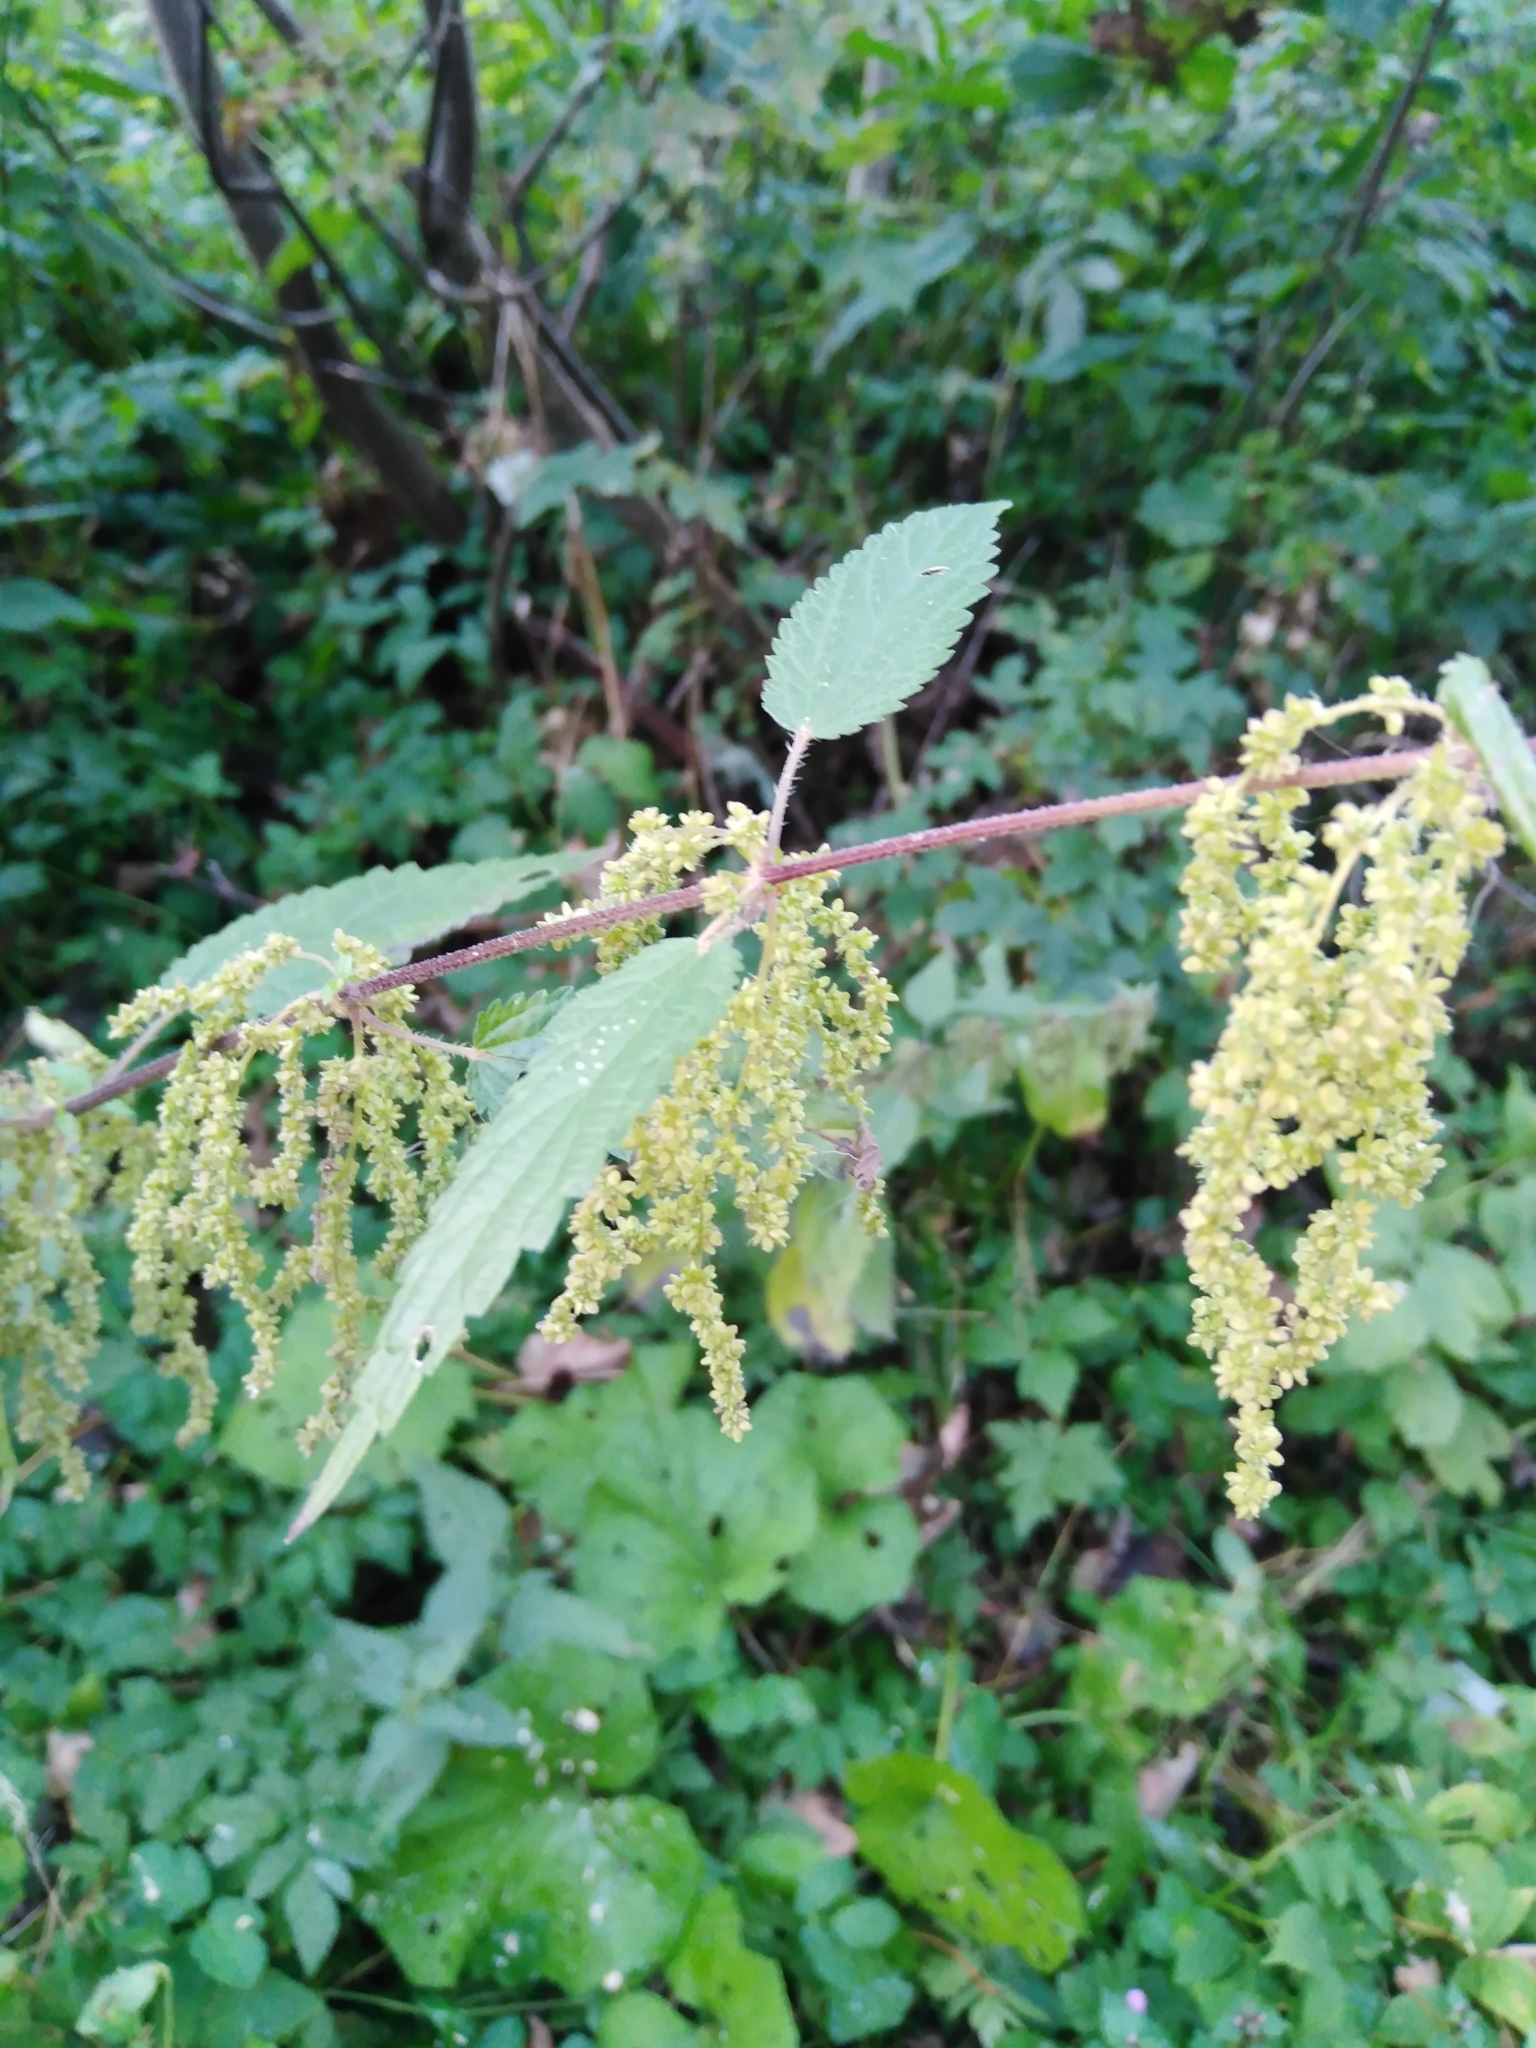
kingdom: Plantae
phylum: Tracheophyta
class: Magnoliopsida
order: Rosales
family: Urticaceae
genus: Urtica
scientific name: Urtica dioica
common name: Common nettle
